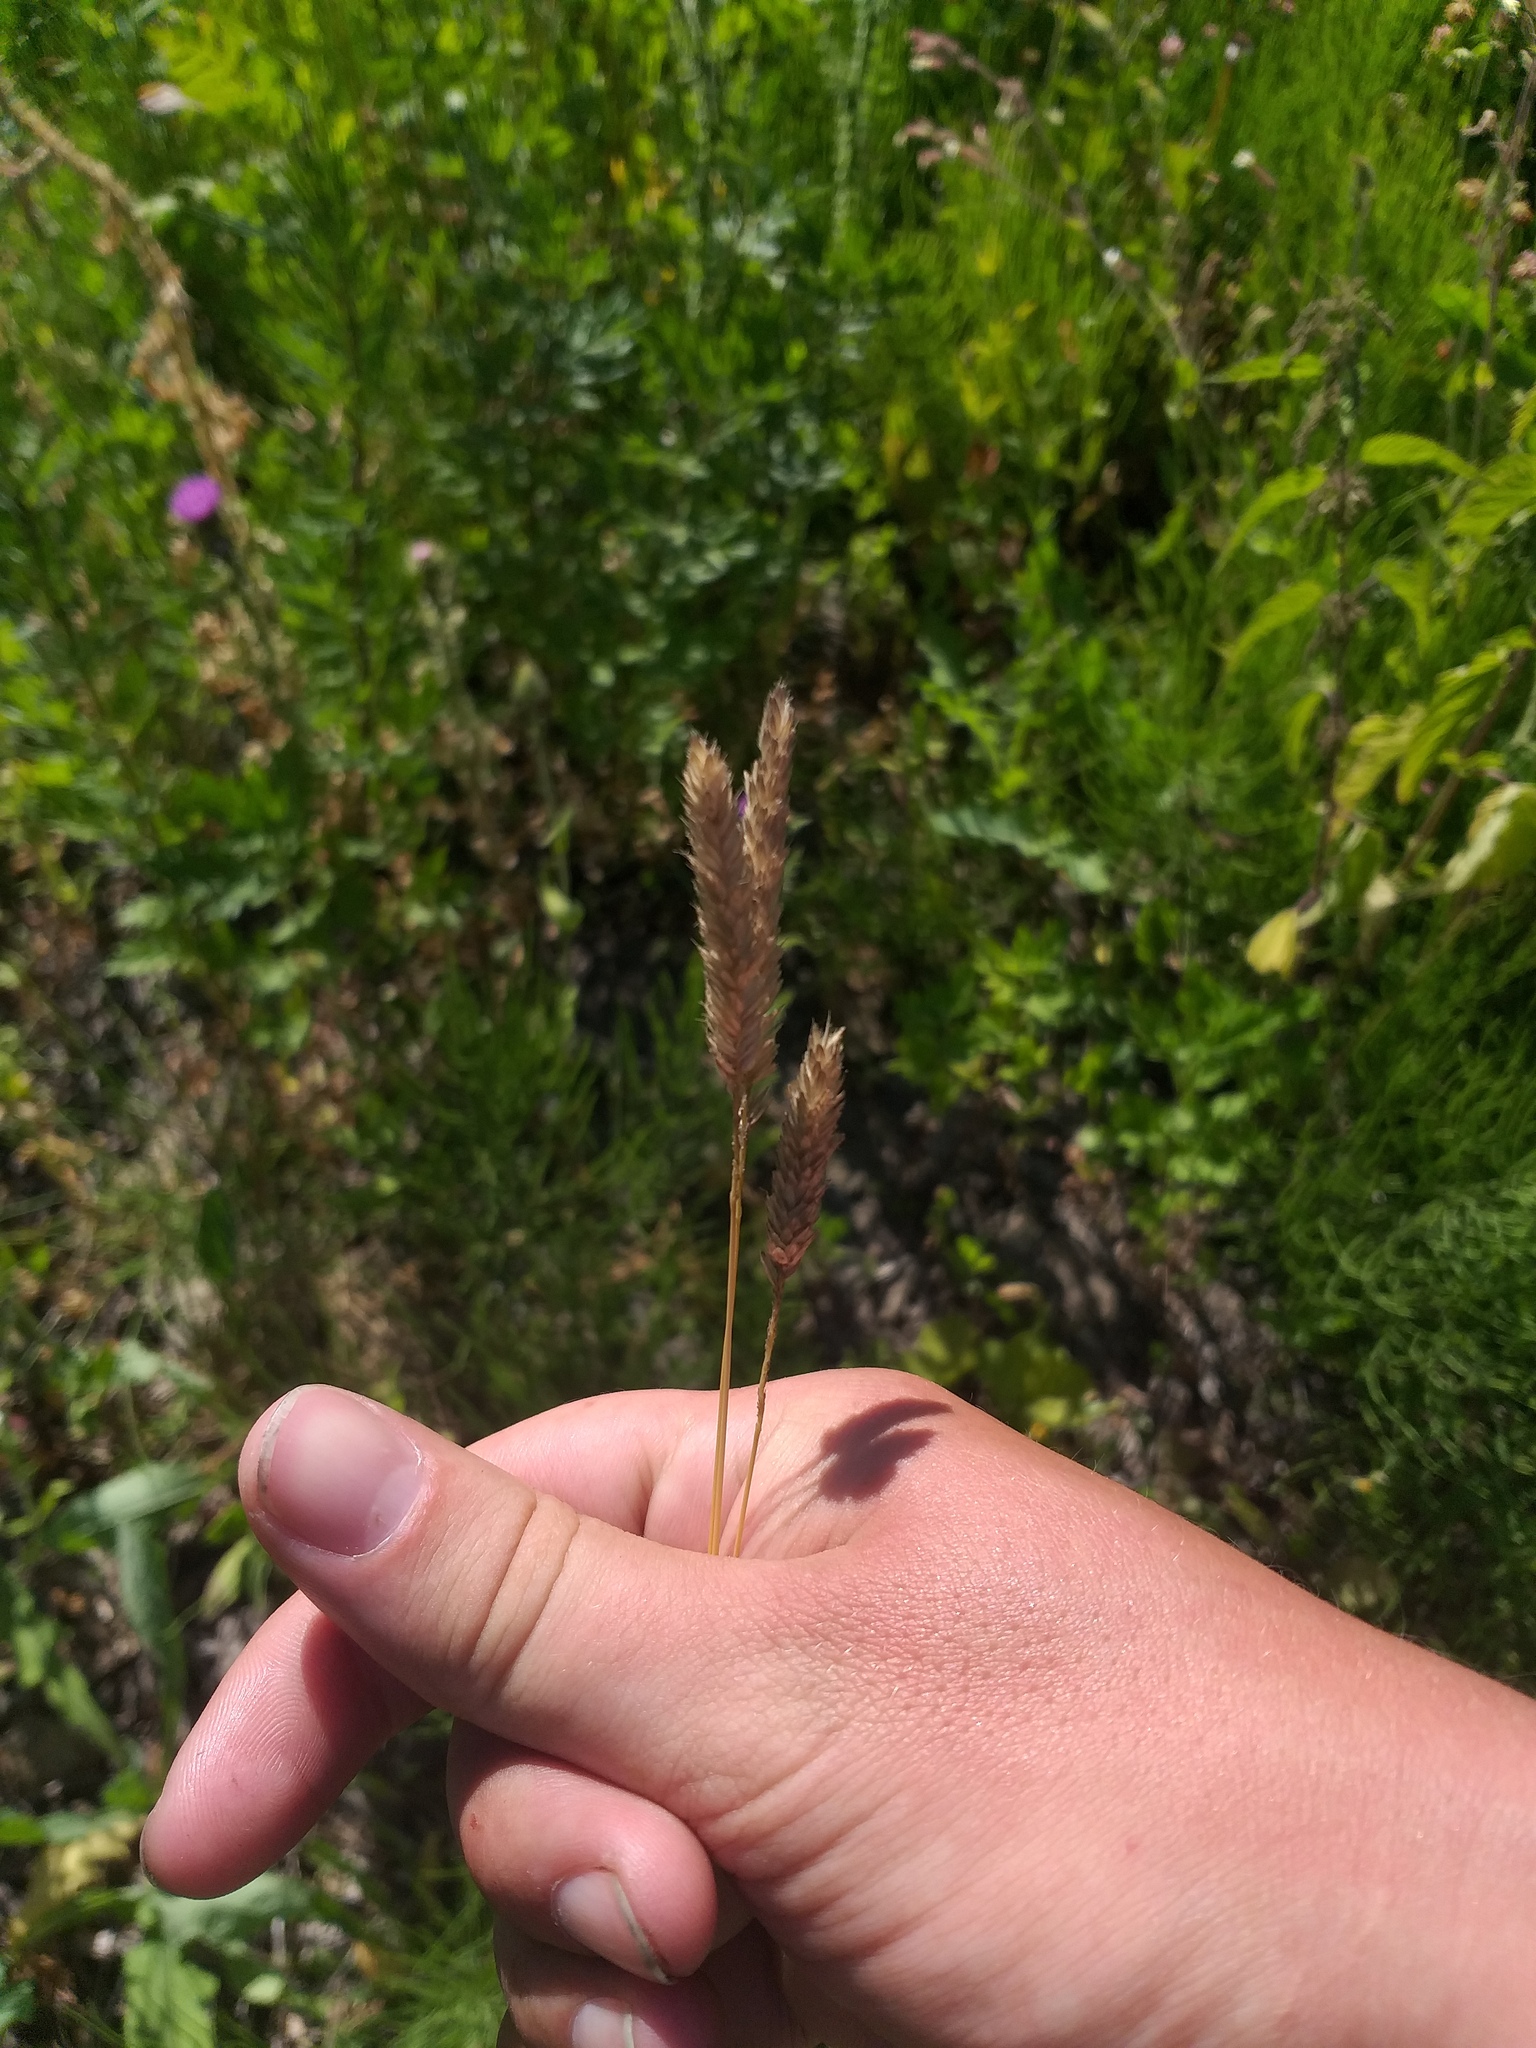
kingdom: Plantae
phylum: Tracheophyta
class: Liliopsida
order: Poales
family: Poaceae
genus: Alopecurus
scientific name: Alopecurus pratensis
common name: Meadow foxtail
